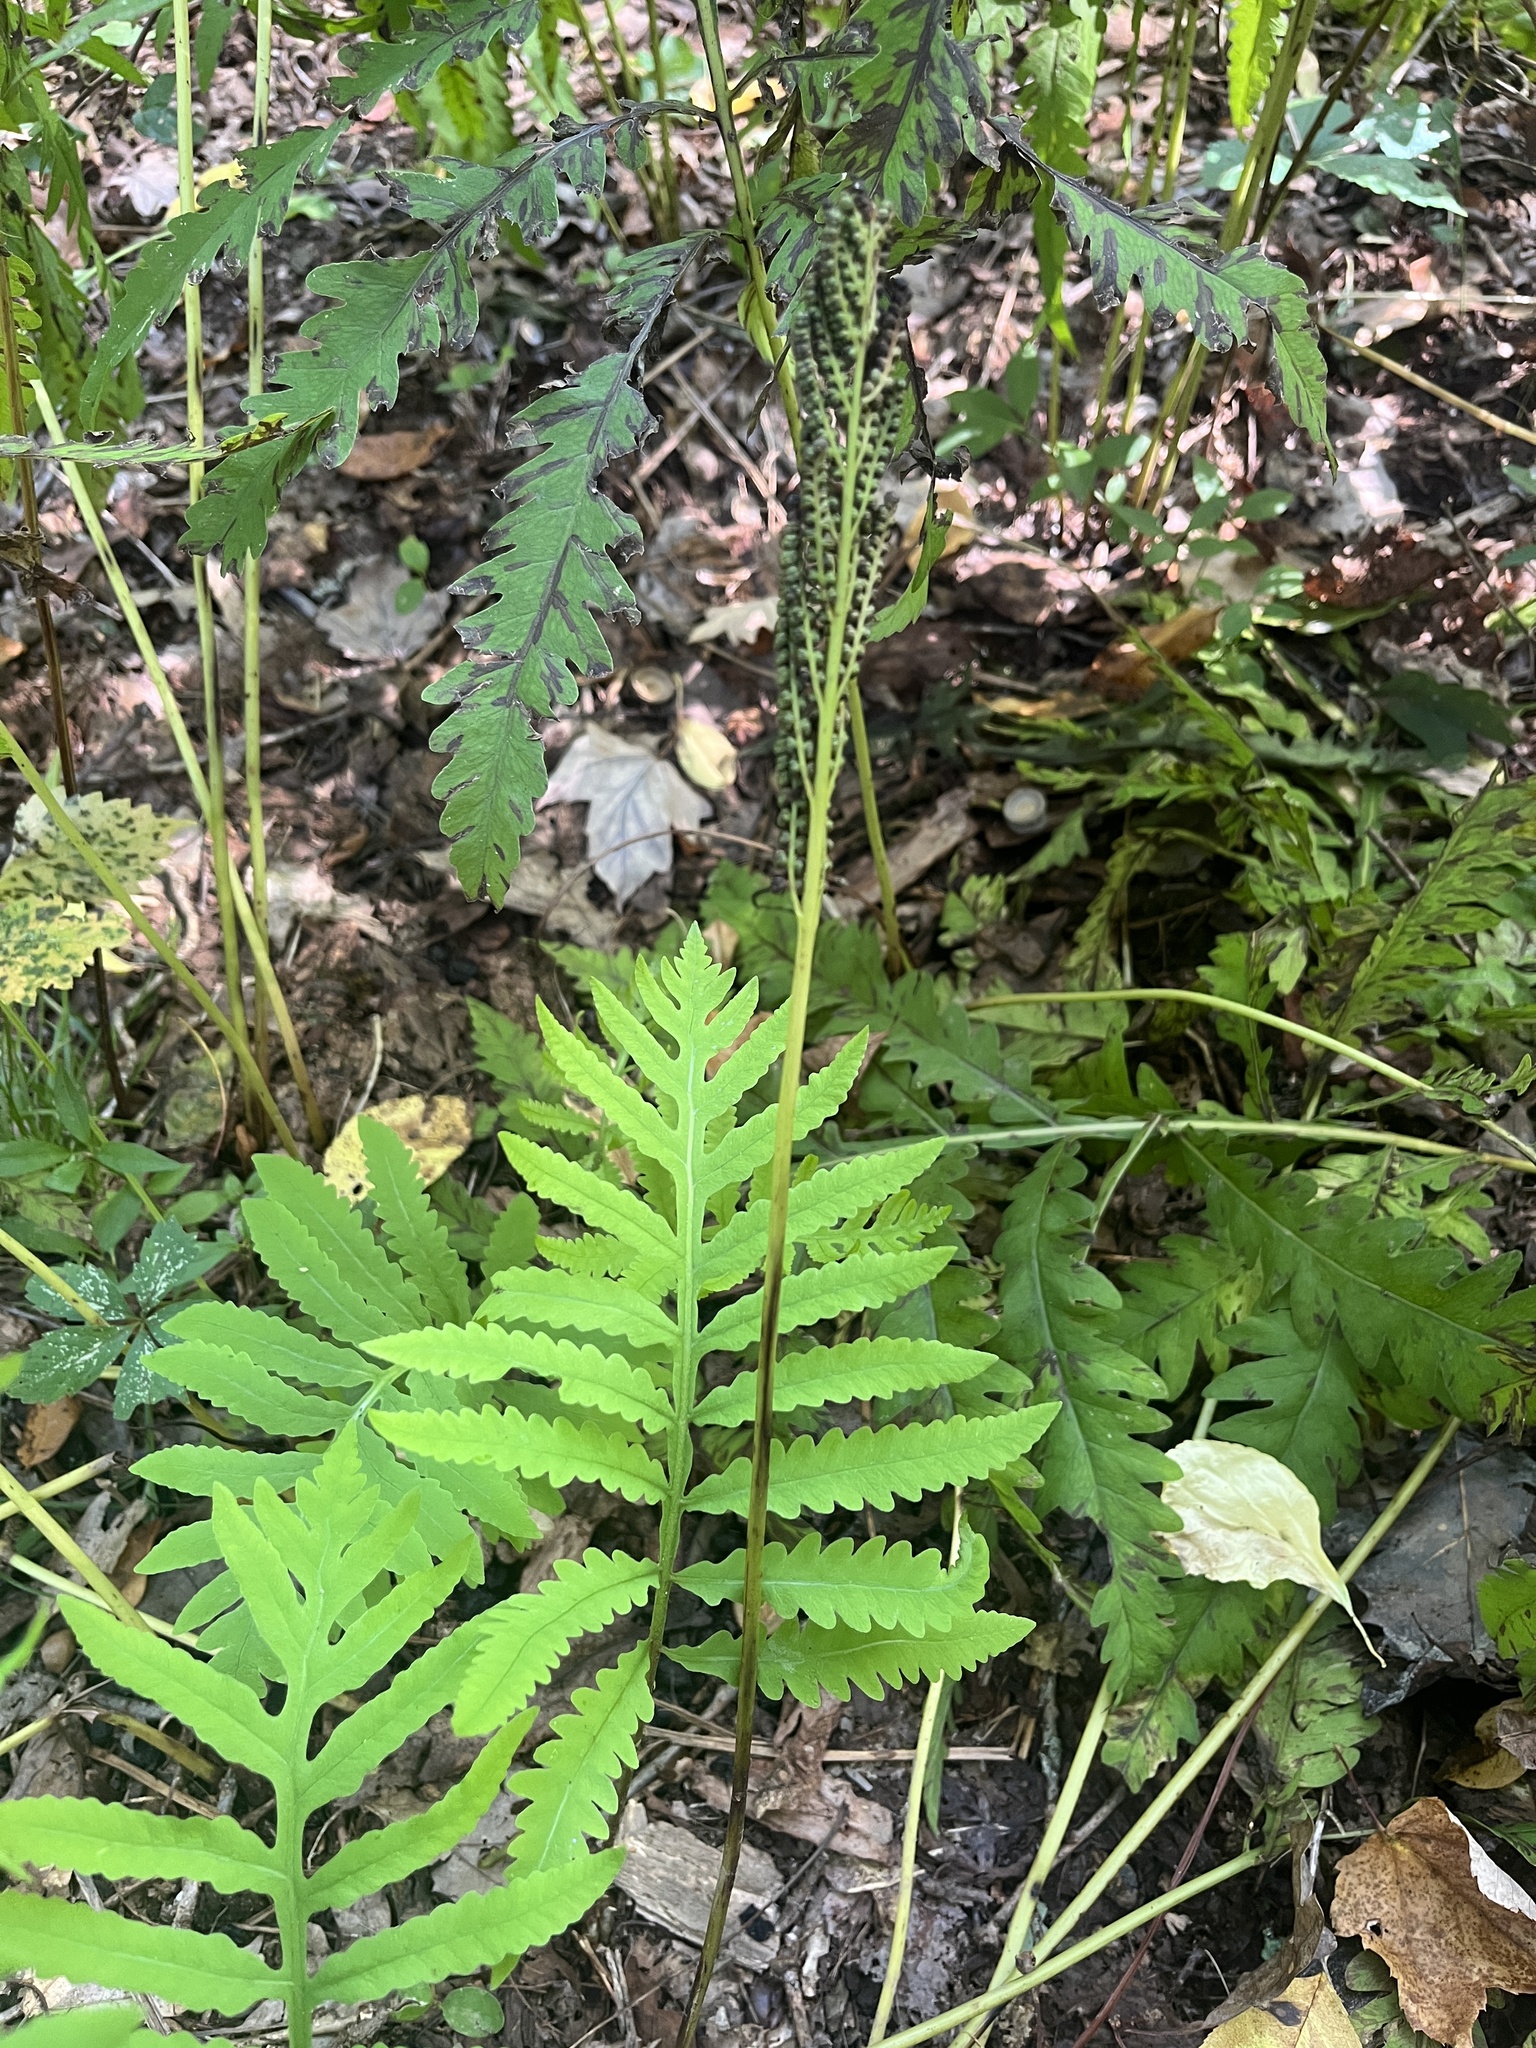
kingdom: Plantae
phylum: Tracheophyta
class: Polypodiopsida
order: Polypodiales
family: Onocleaceae
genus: Onoclea
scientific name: Onoclea sensibilis
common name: Sensitive fern
